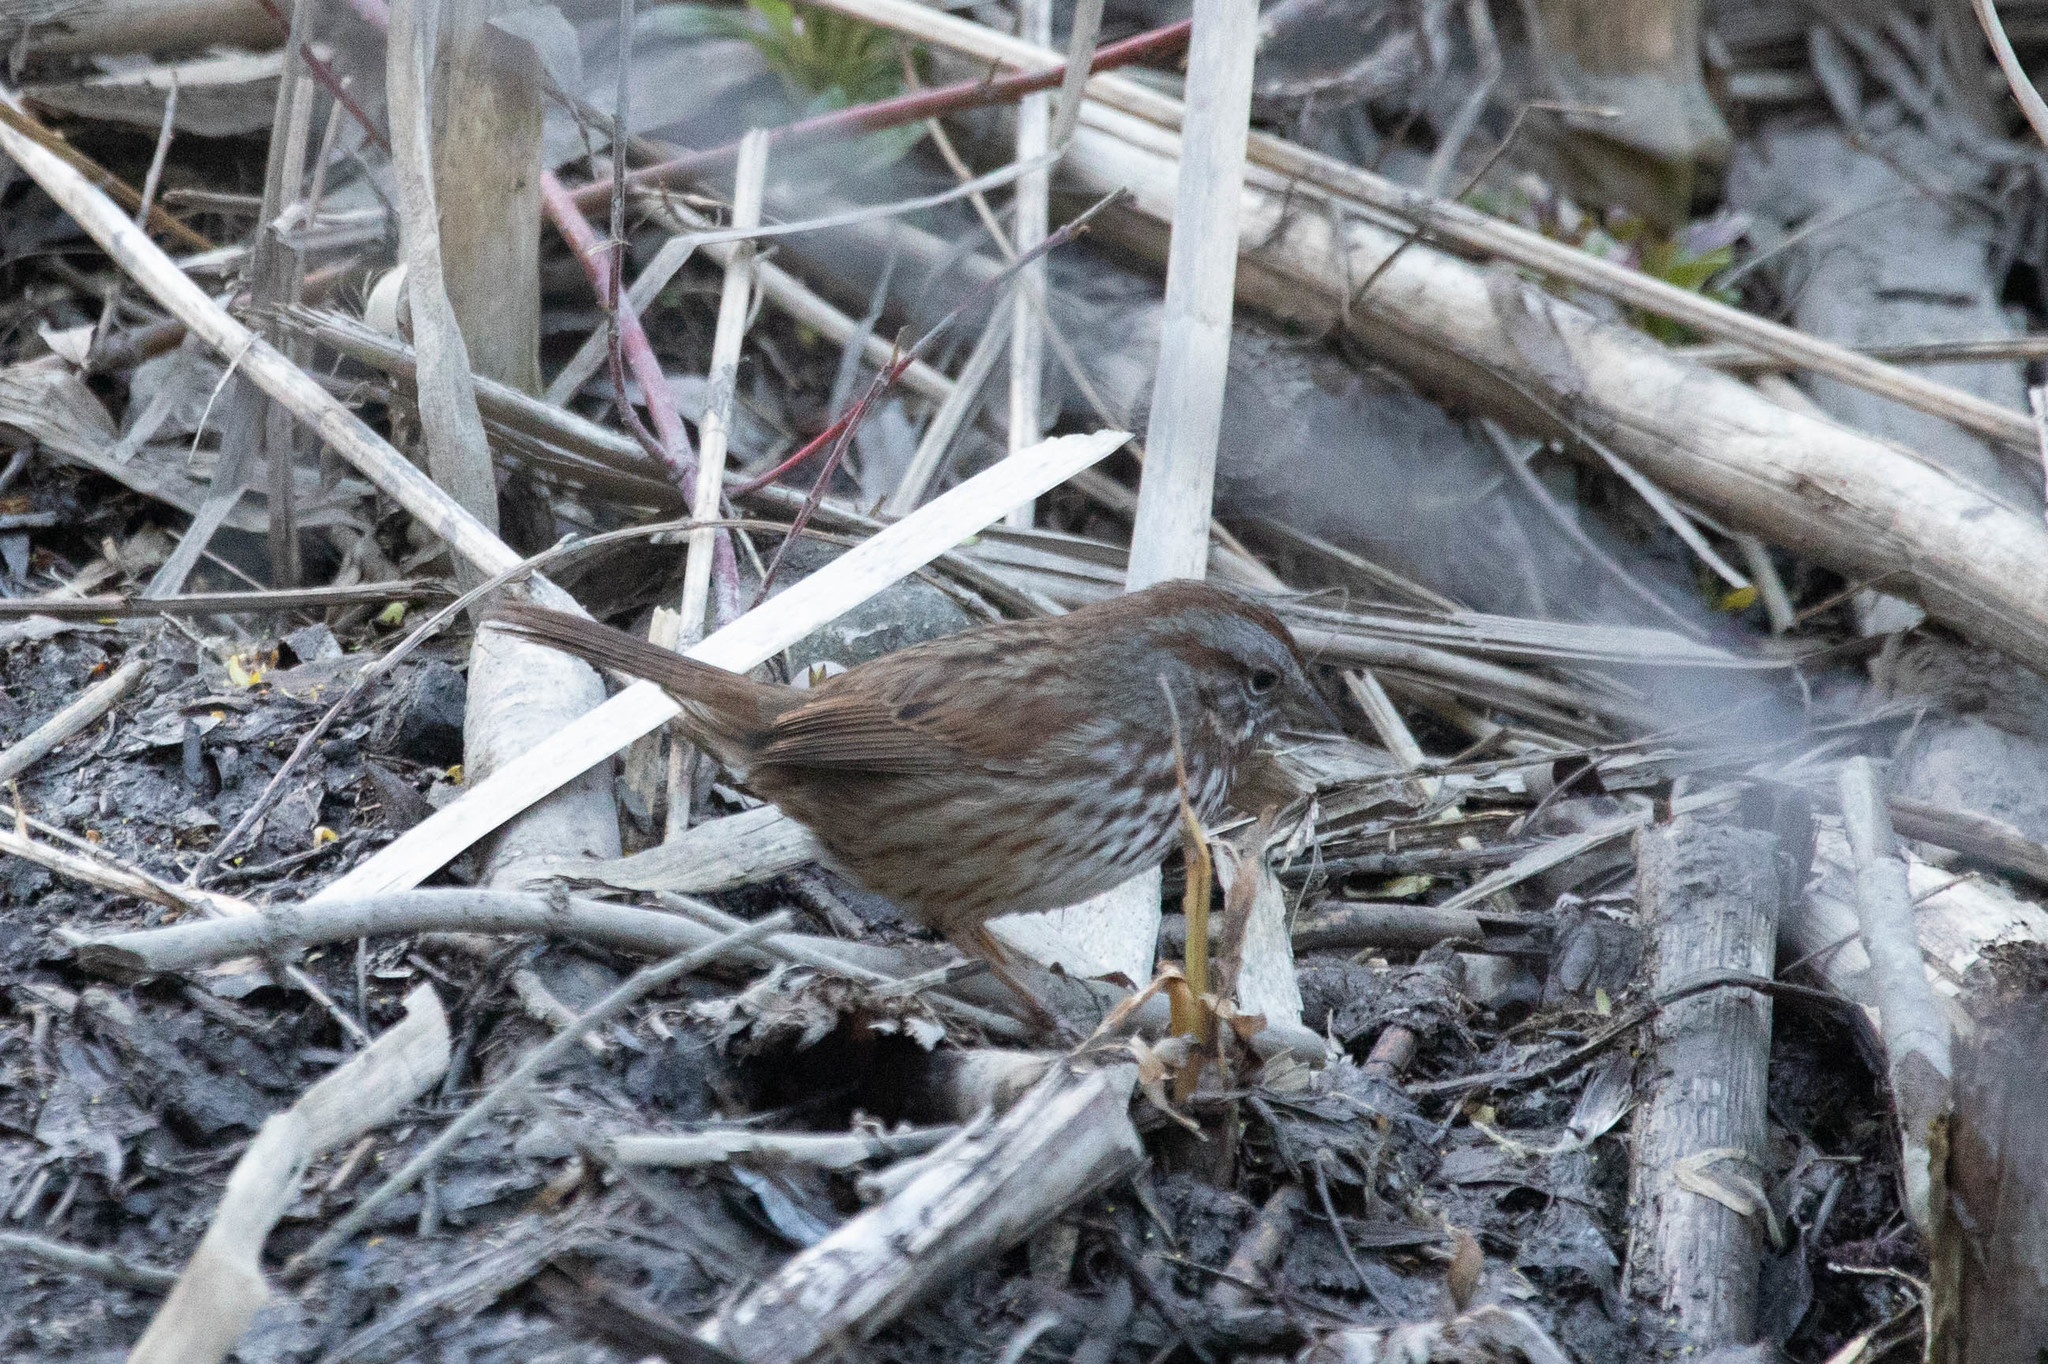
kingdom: Animalia
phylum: Chordata
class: Aves
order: Passeriformes
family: Passerellidae
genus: Melospiza
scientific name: Melospiza melodia
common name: Song sparrow
